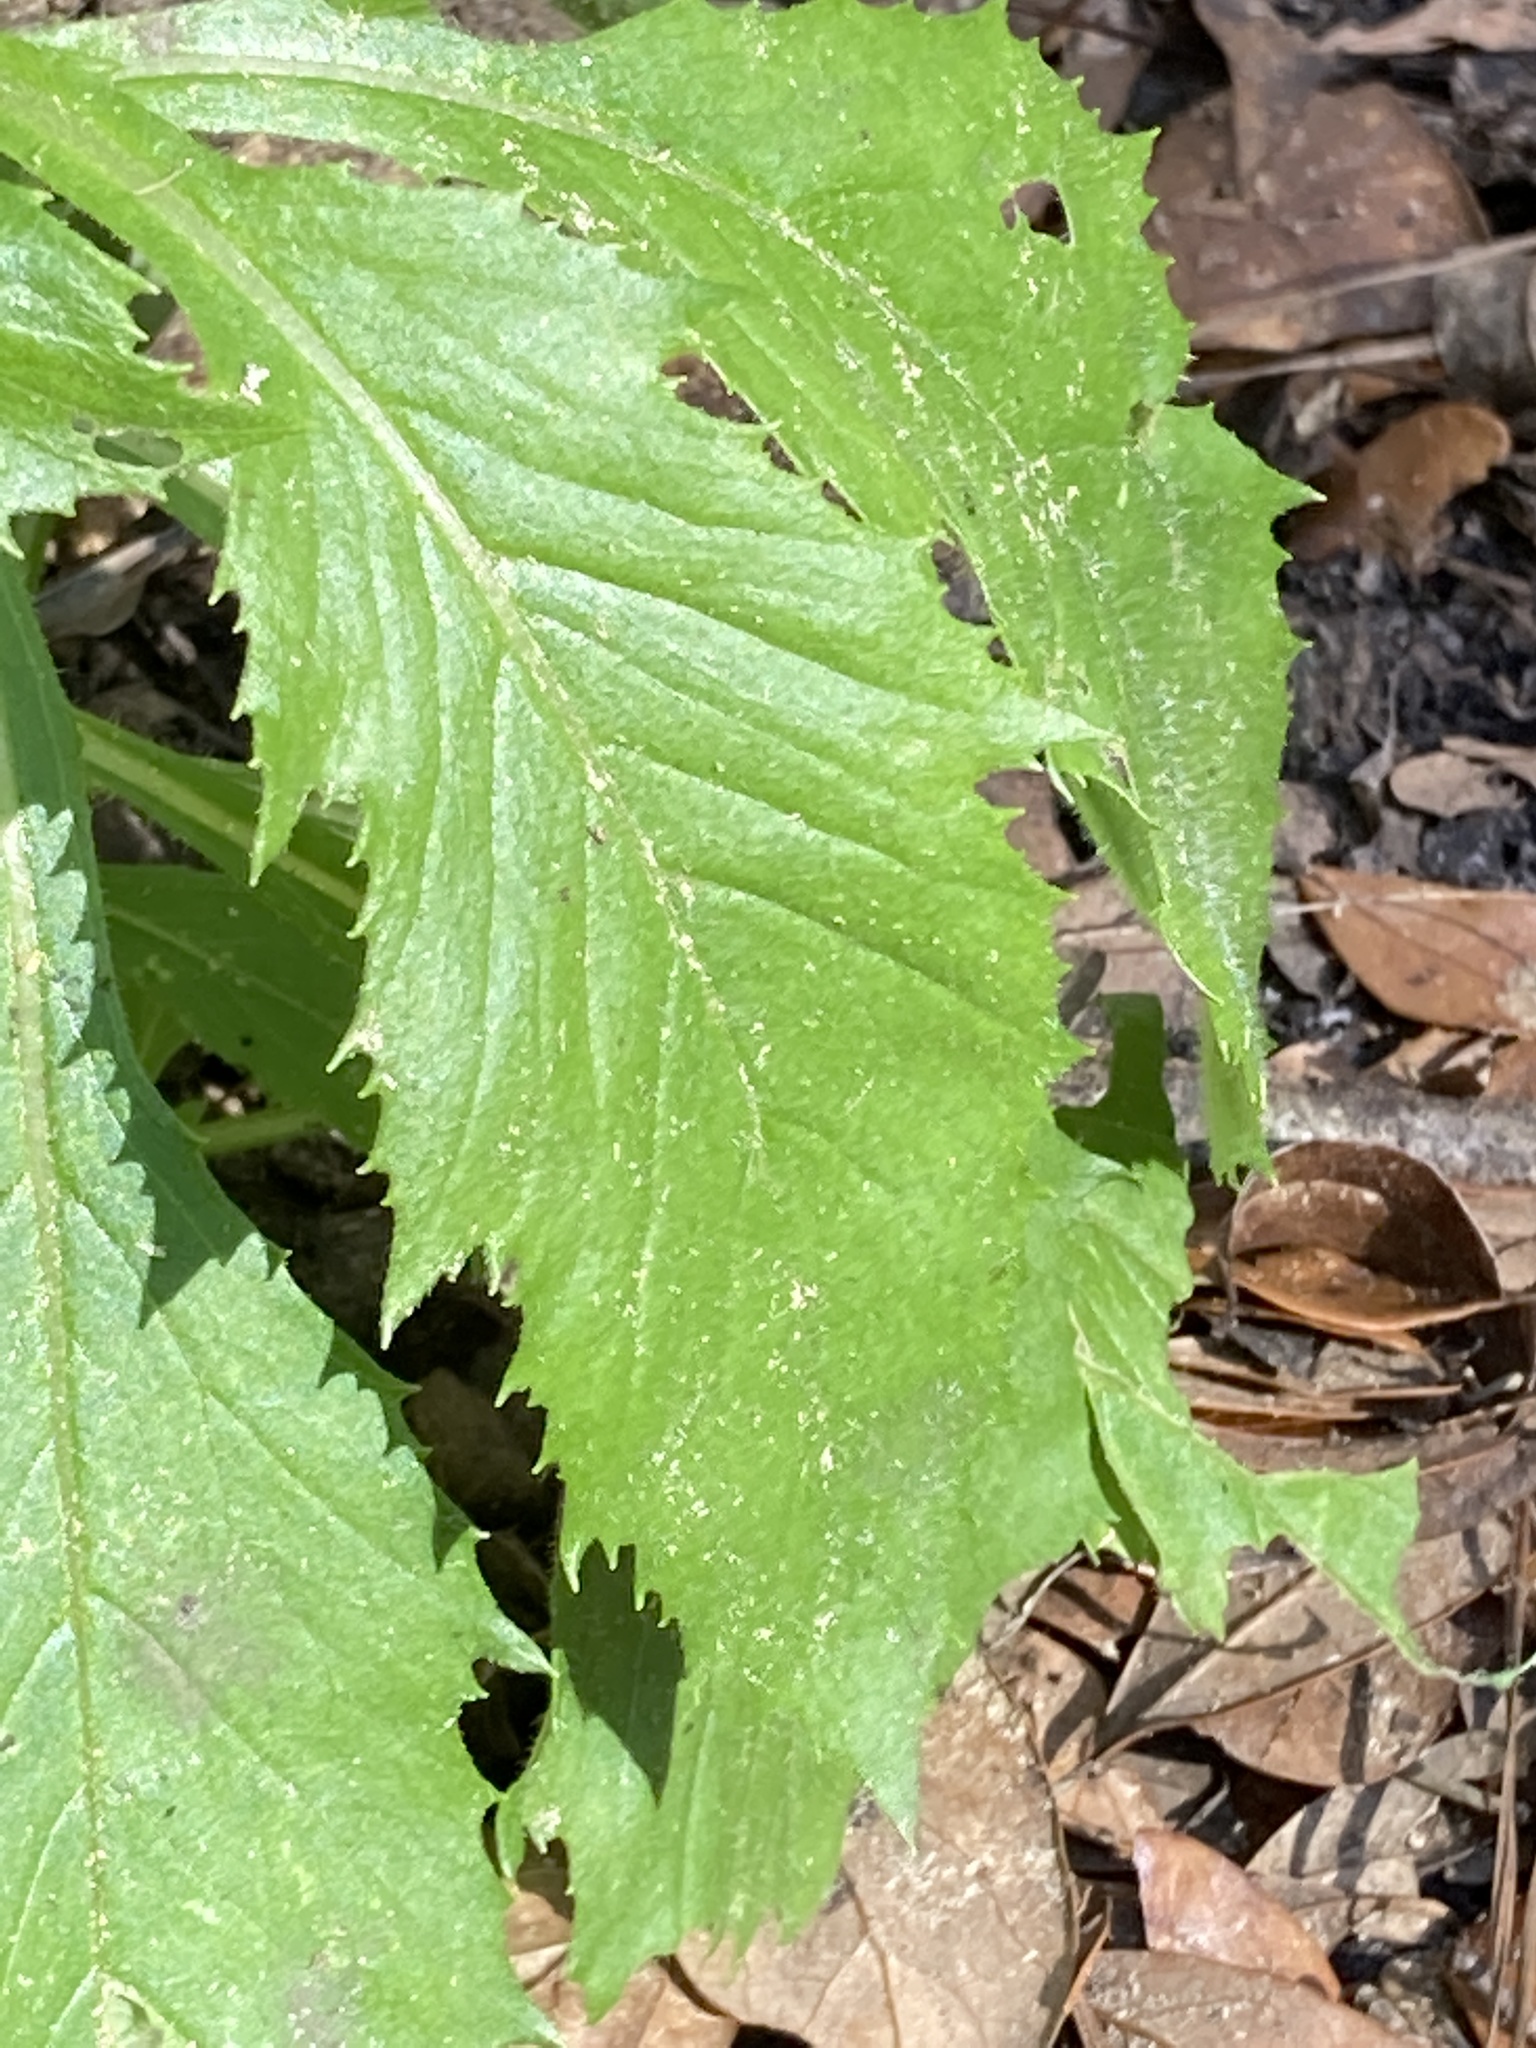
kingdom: Plantae
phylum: Tracheophyta
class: Magnoliopsida
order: Asterales
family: Asteraceae
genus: Erechtites
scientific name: Erechtites hieraciifolius
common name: American burnweed
